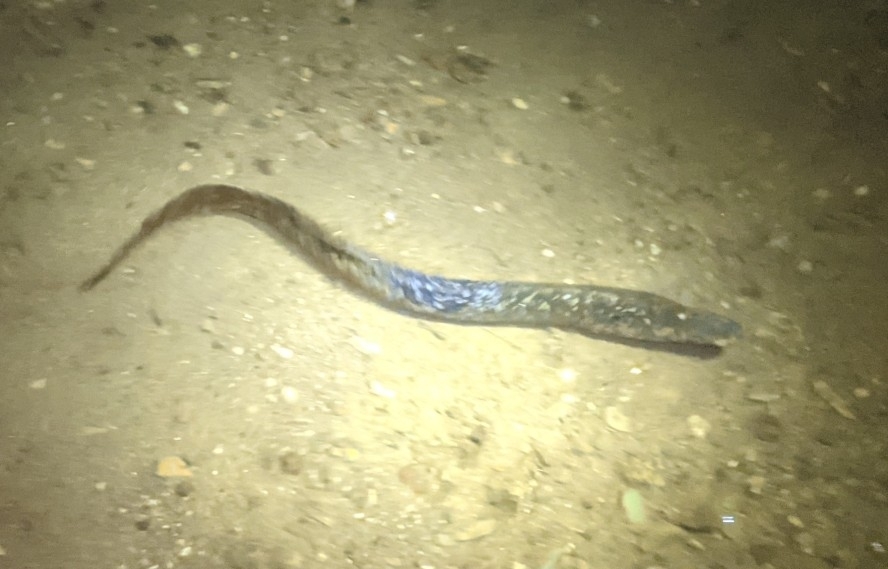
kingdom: Animalia
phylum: Chordata
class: Petromyzonti
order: Petromyzontiformes
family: Petromyzontidae
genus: Petromyzon
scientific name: Petromyzon marinus
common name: Sea lamprey
